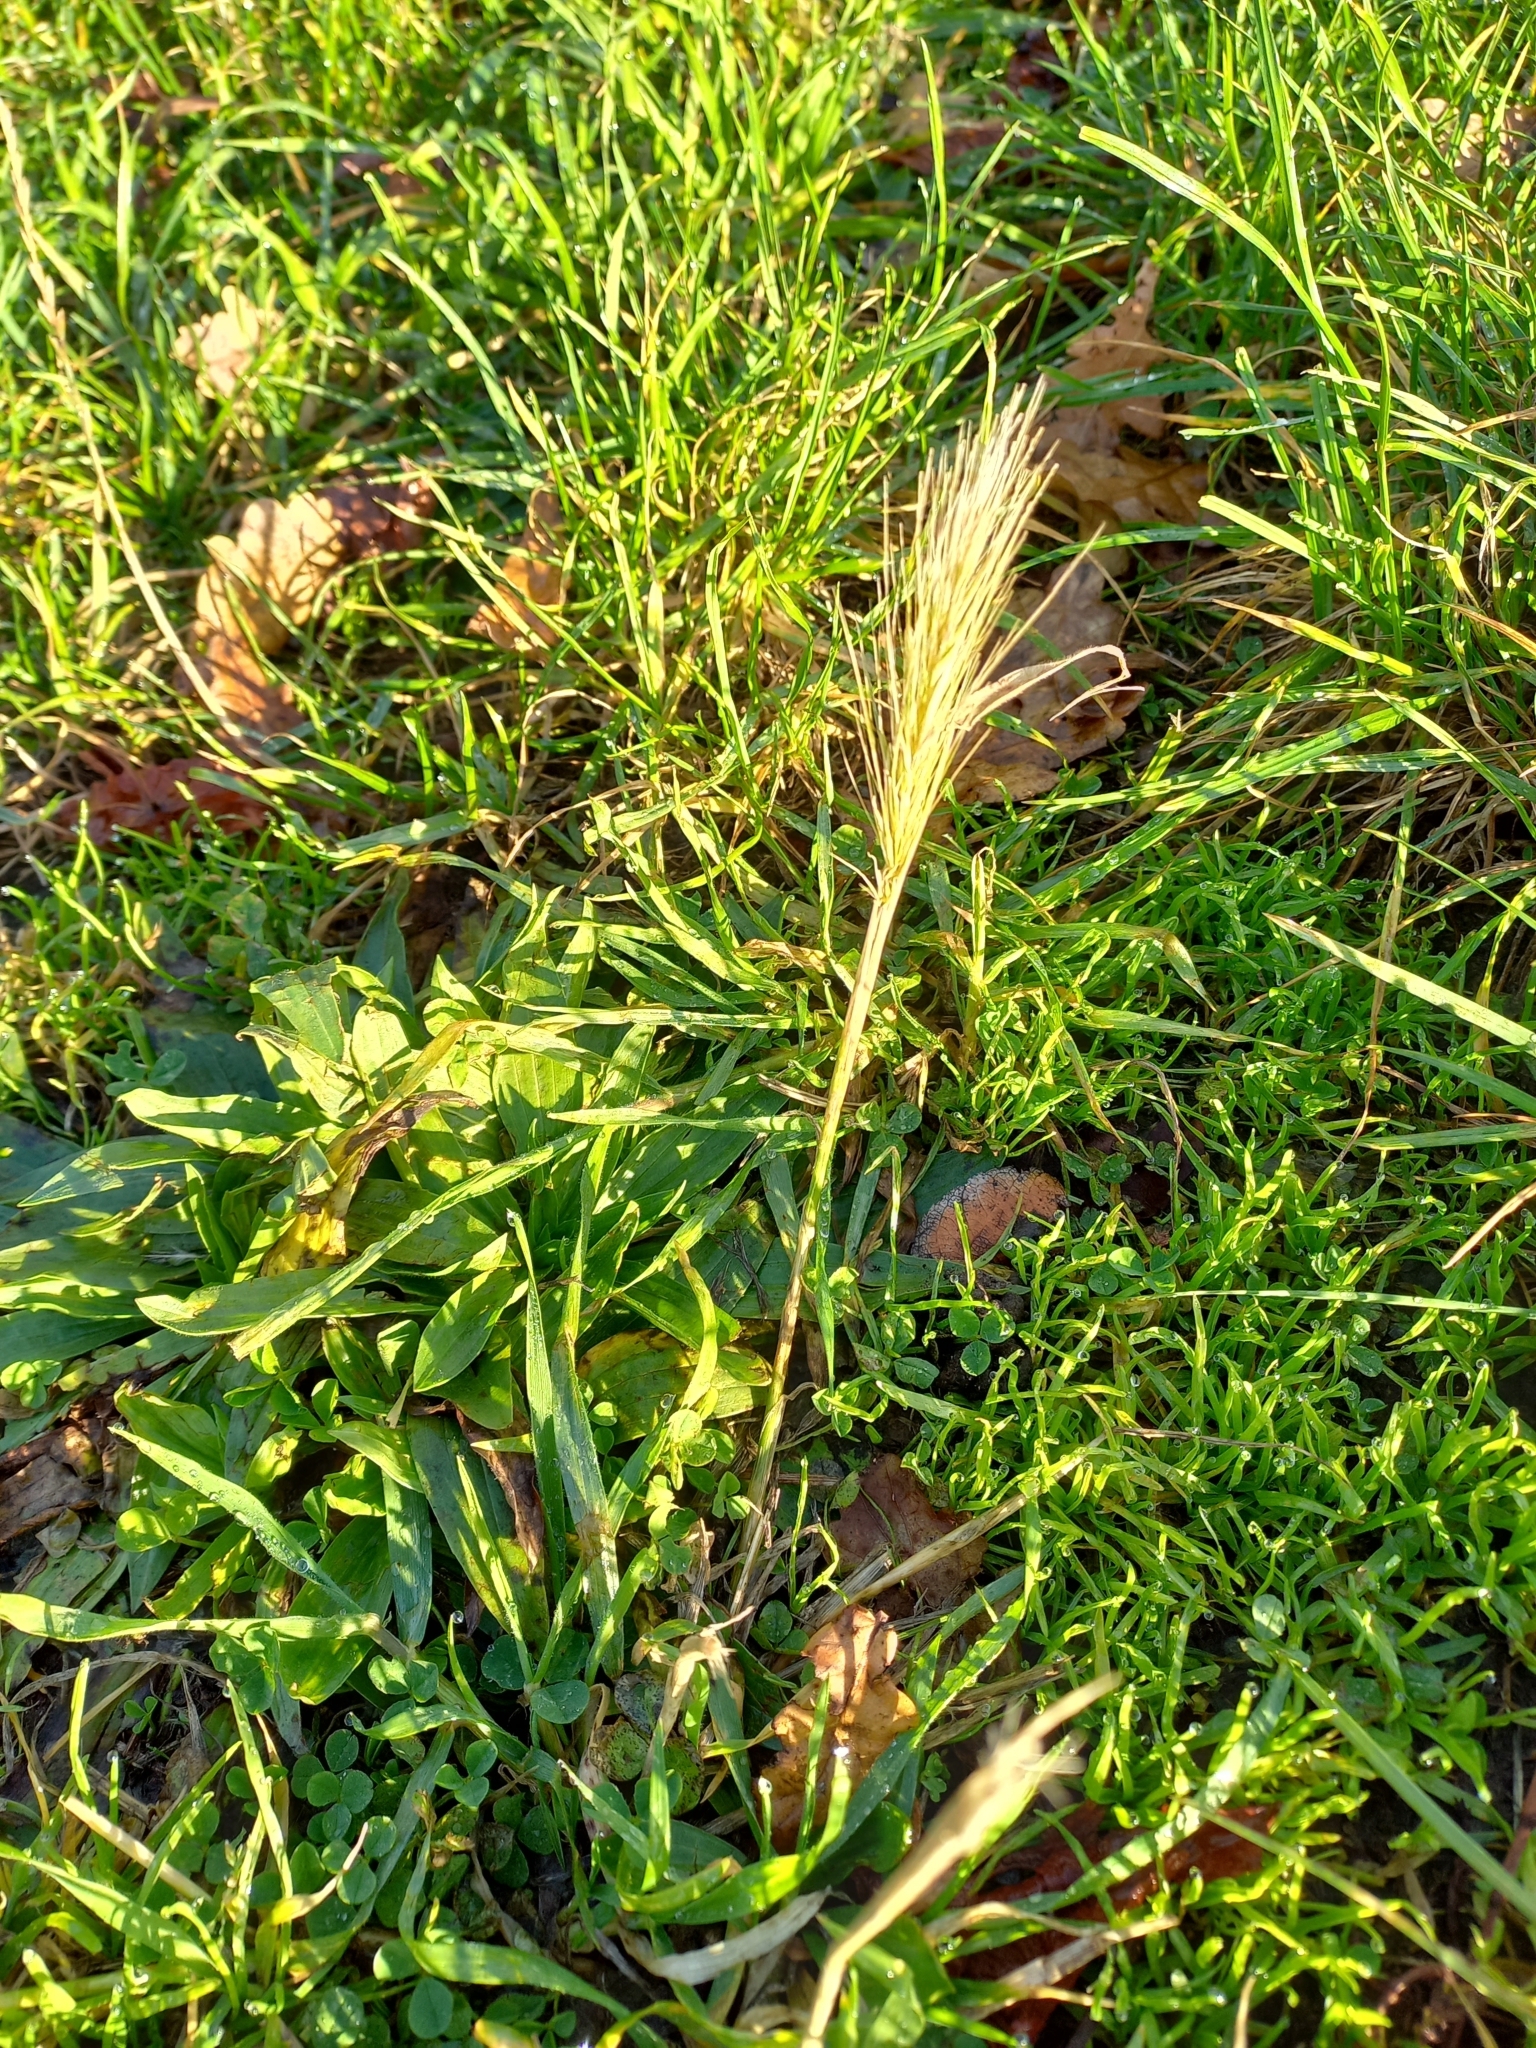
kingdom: Plantae
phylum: Tracheophyta
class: Liliopsida
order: Poales
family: Poaceae
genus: Hordeum
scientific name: Hordeum murinum
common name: Wall barley
